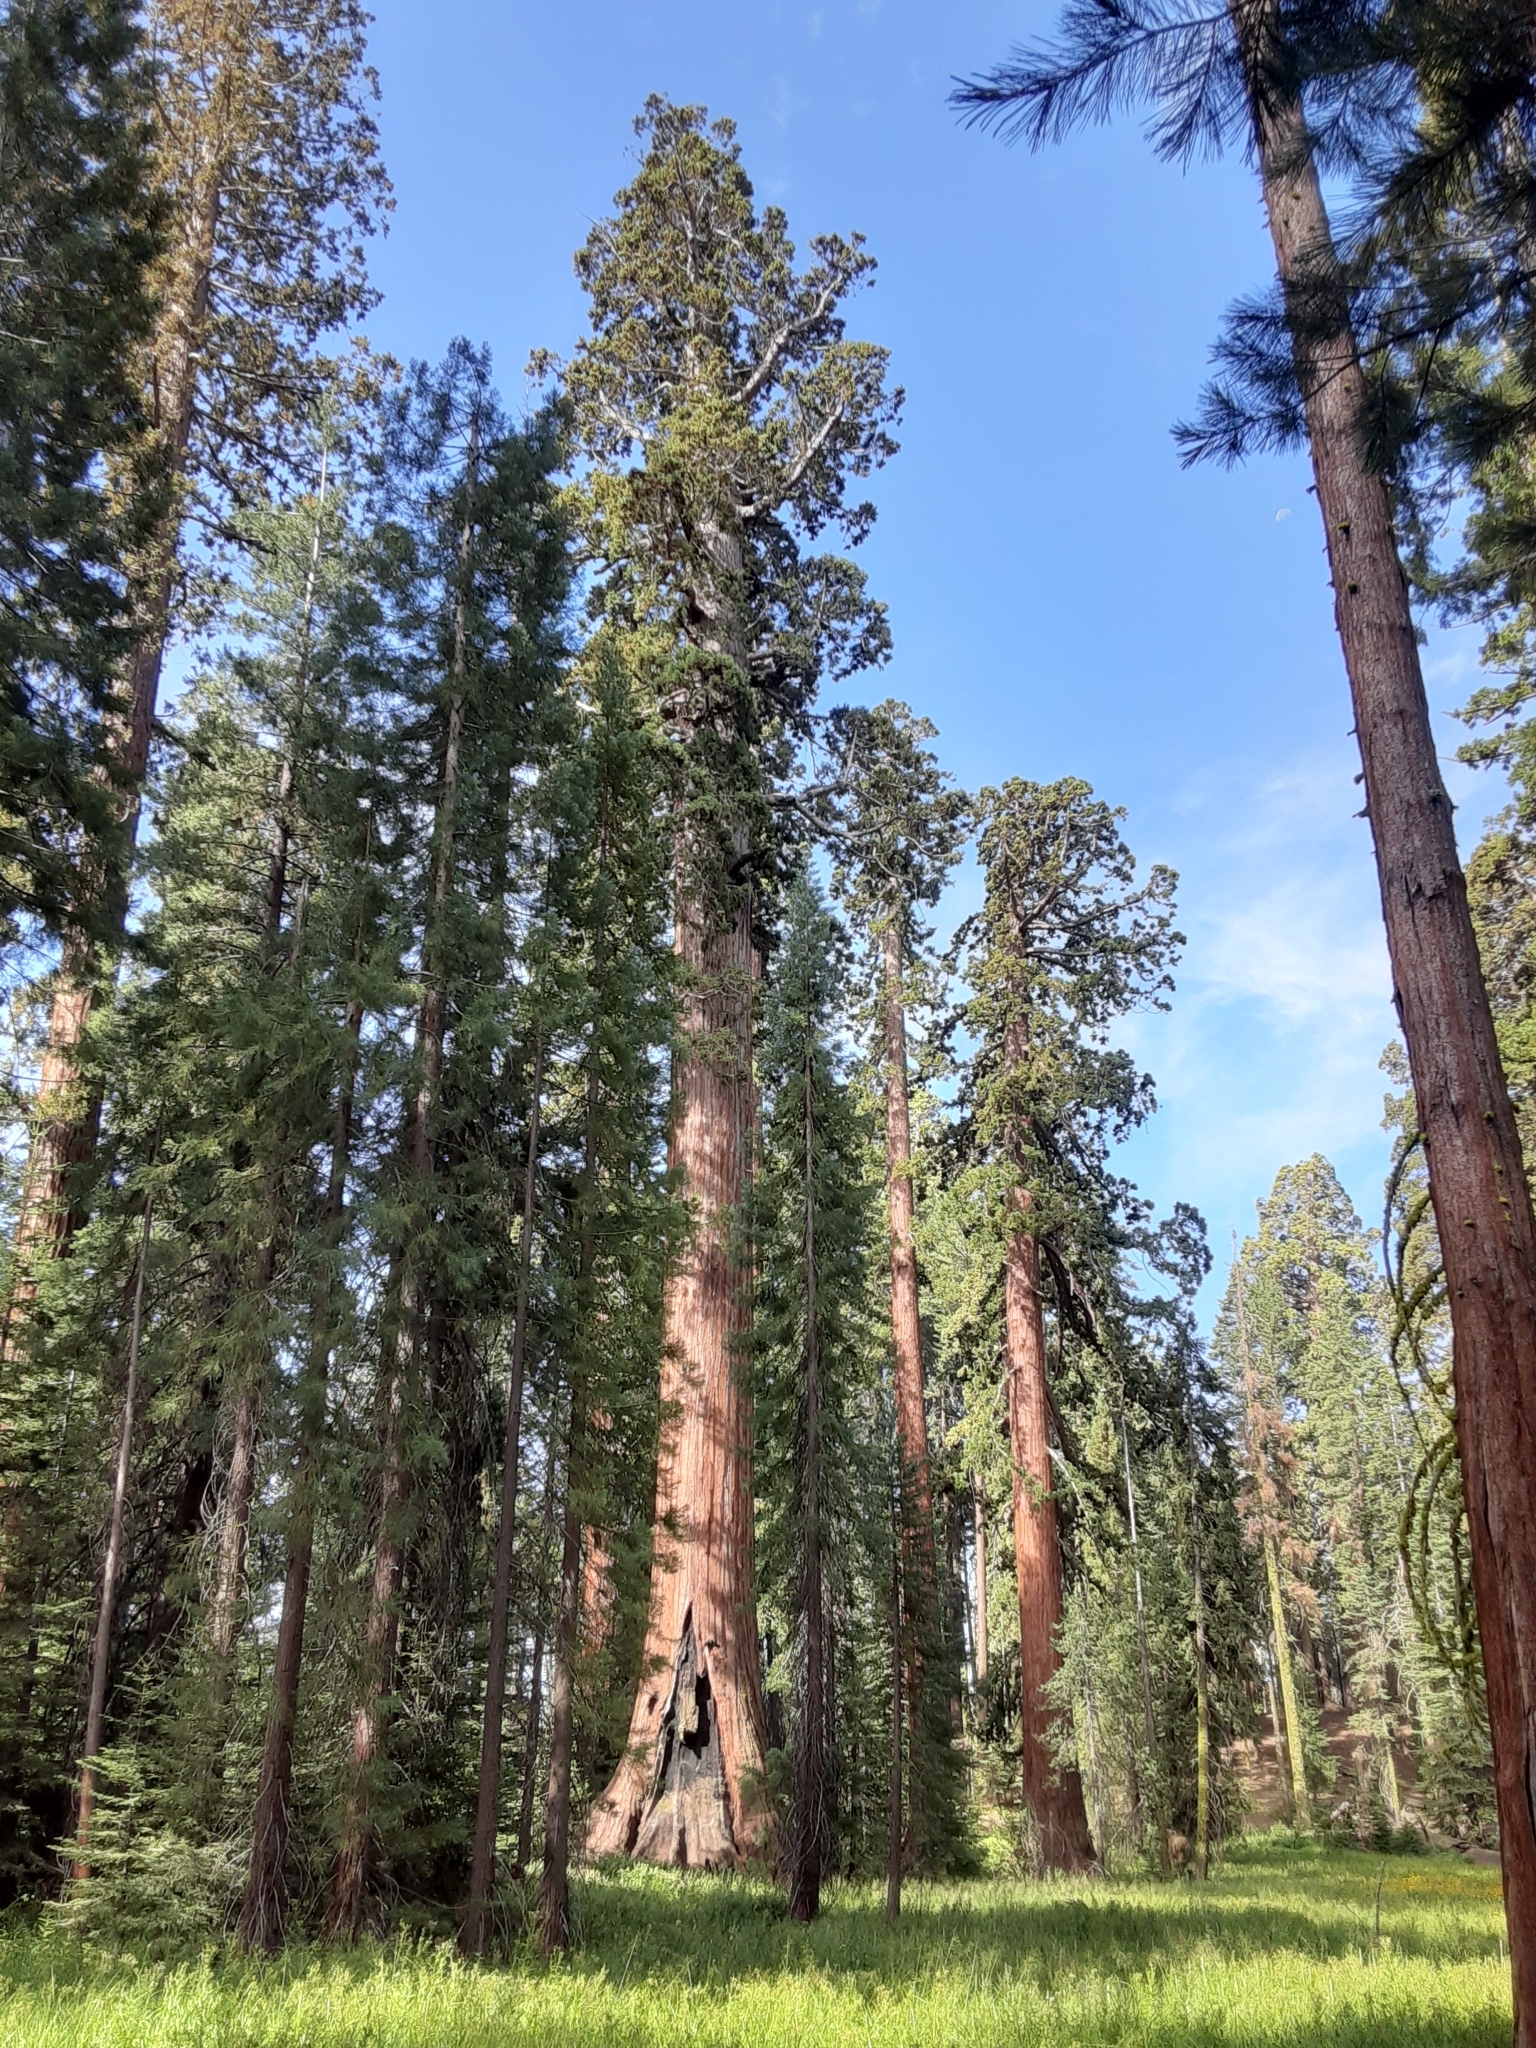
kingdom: Plantae
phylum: Tracheophyta
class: Pinopsida
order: Pinales
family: Cupressaceae
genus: Sequoiadendron
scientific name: Sequoiadendron giganteum
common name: Wellingtonia
